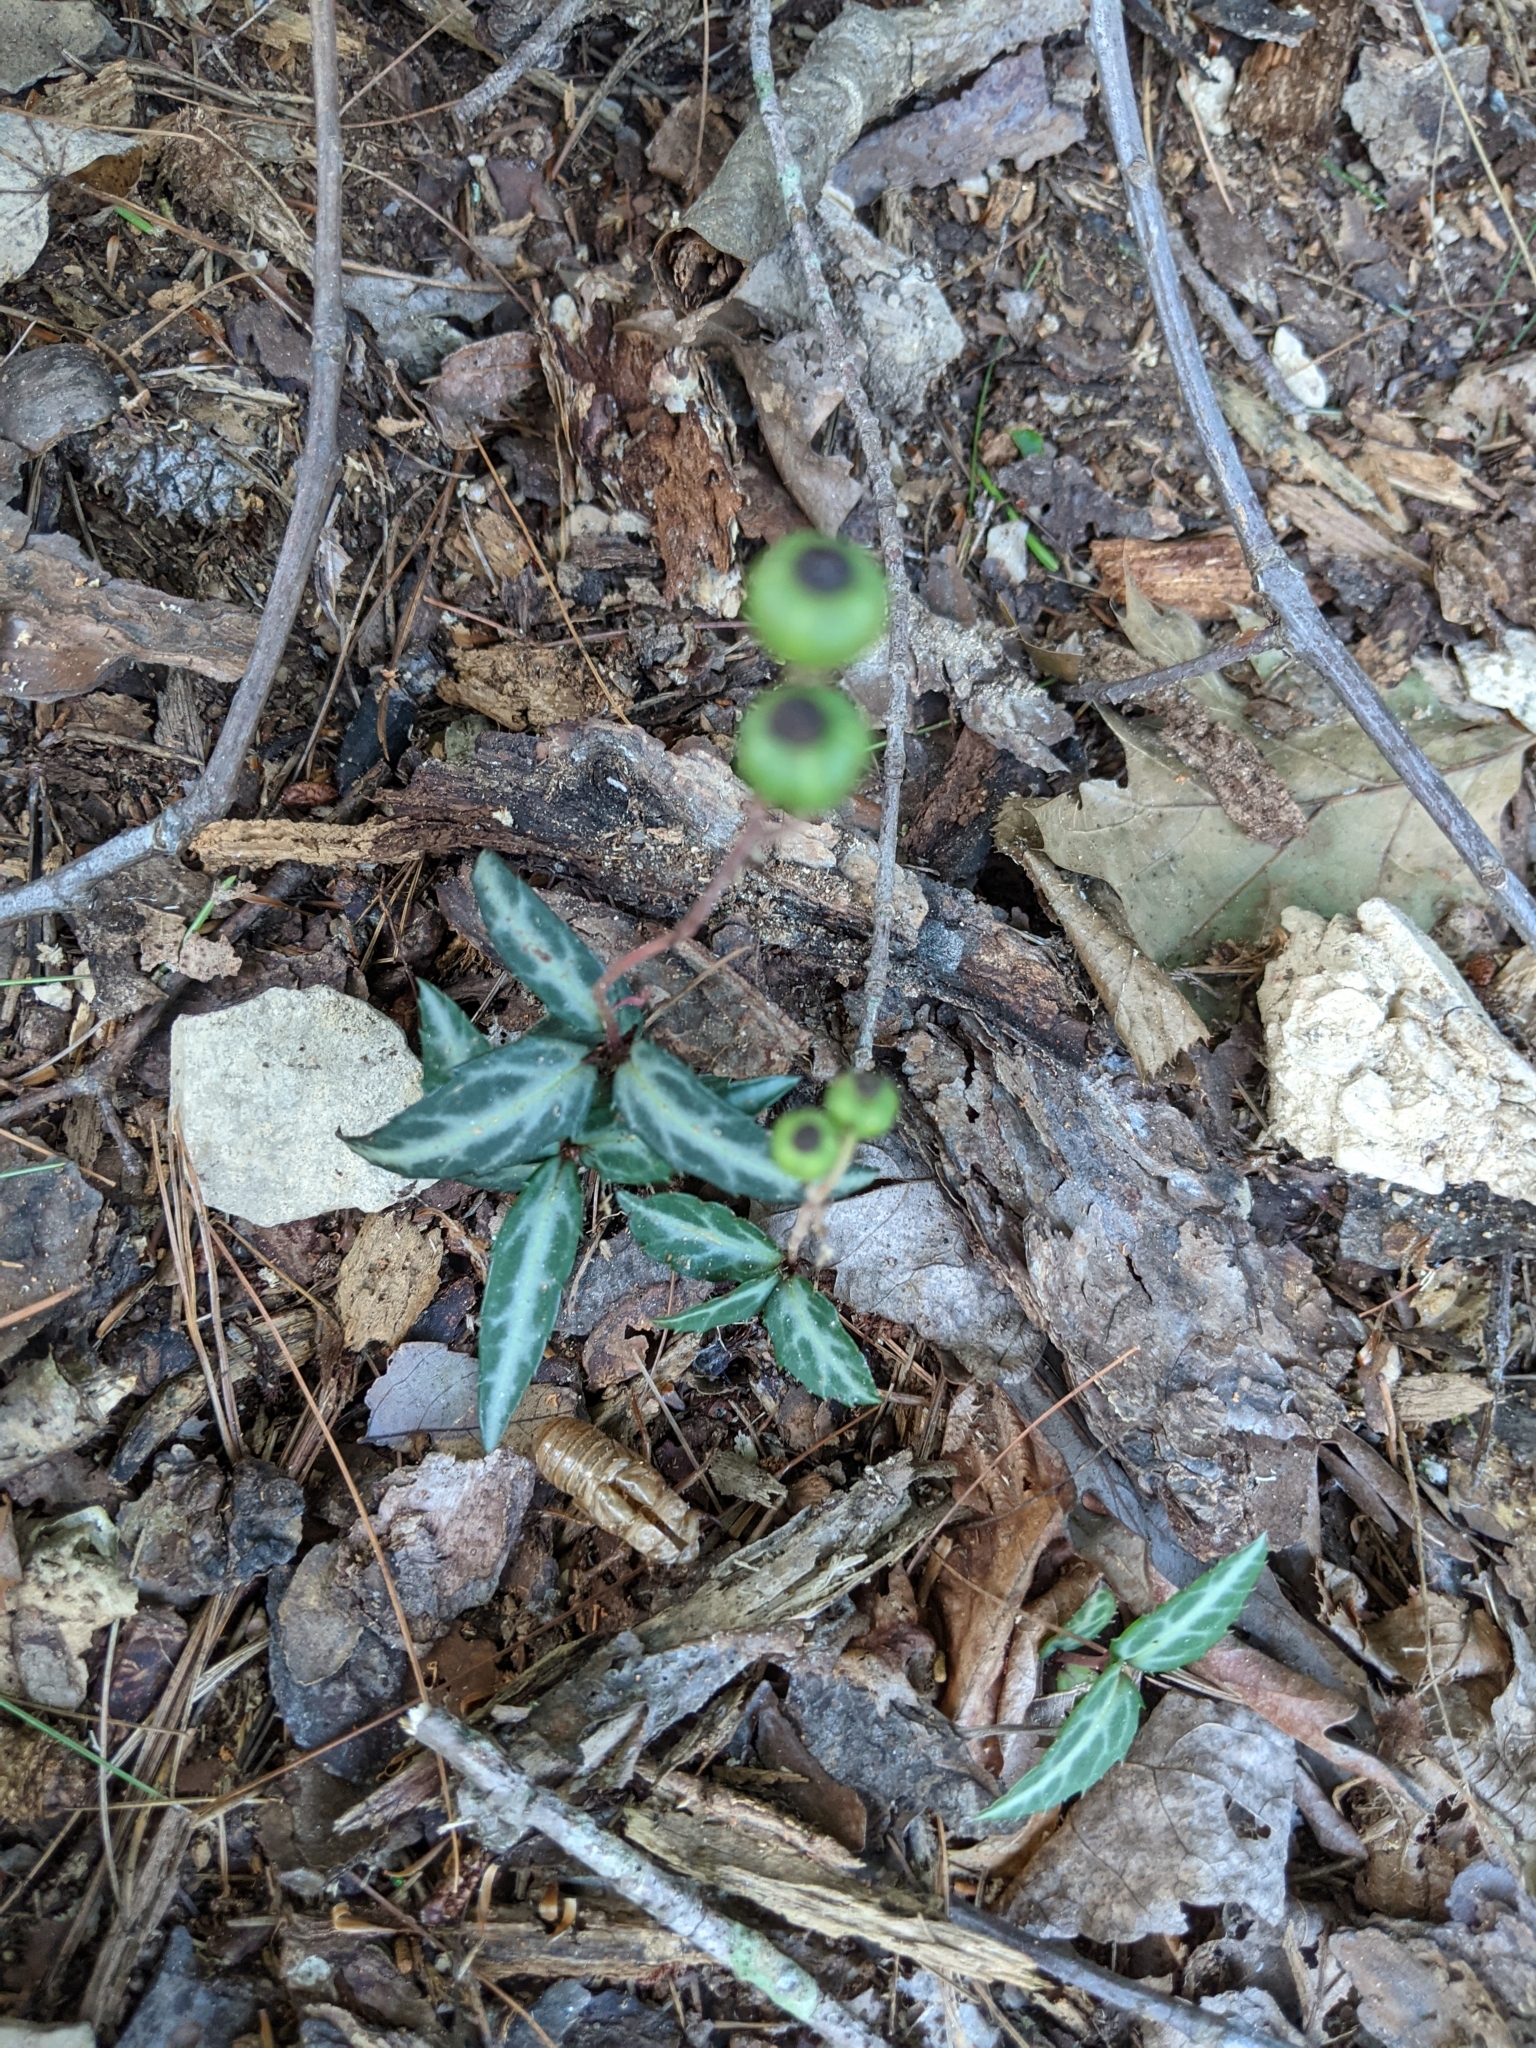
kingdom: Plantae
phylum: Tracheophyta
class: Magnoliopsida
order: Ericales
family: Ericaceae
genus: Chimaphila
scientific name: Chimaphila maculata
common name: Spotted pipsissewa
